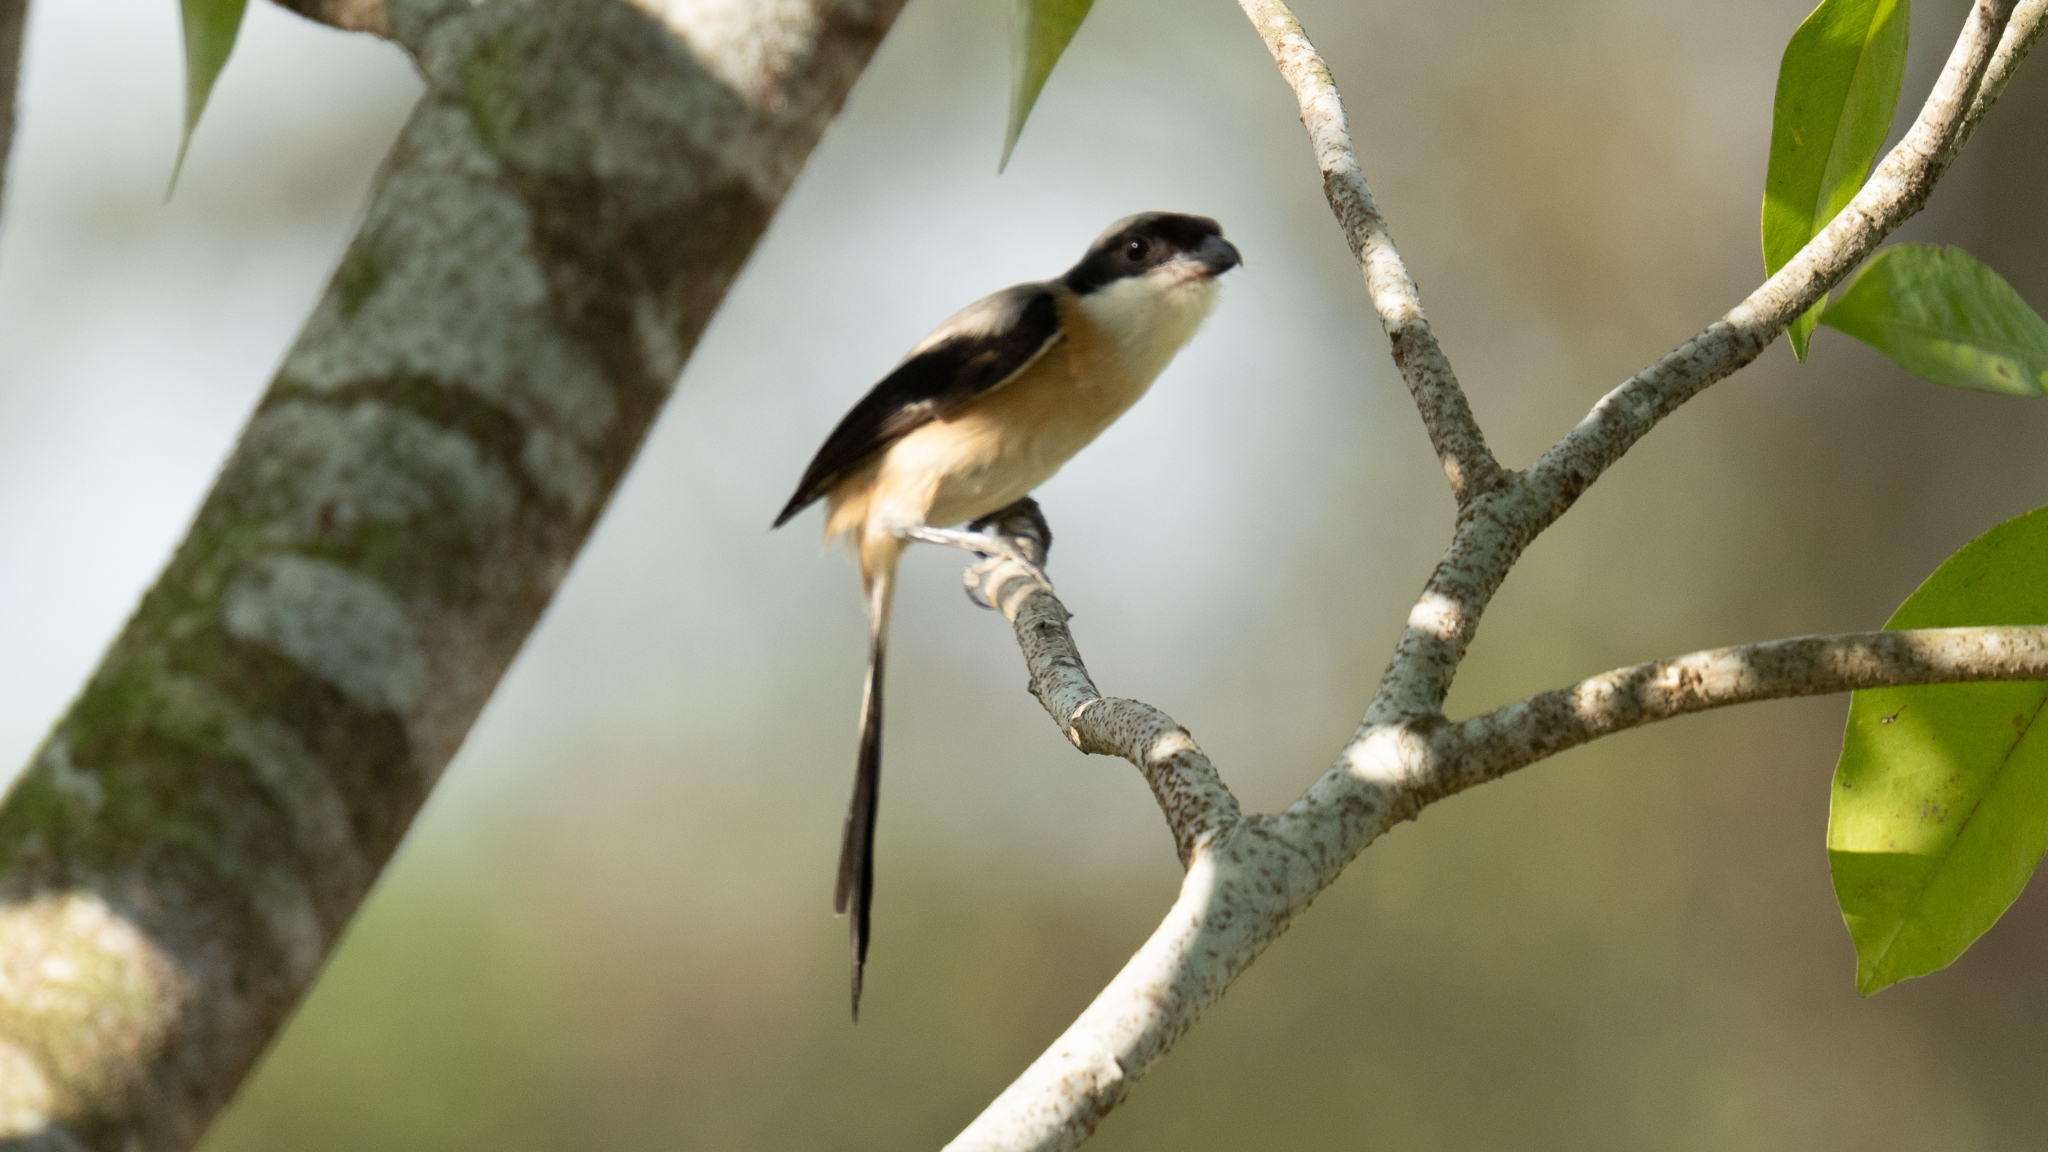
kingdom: Animalia
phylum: Chordata
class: Aves
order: Passeriformes
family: Laniidae
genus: Lanius
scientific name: Lanius schach
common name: Long-tailed shrike
